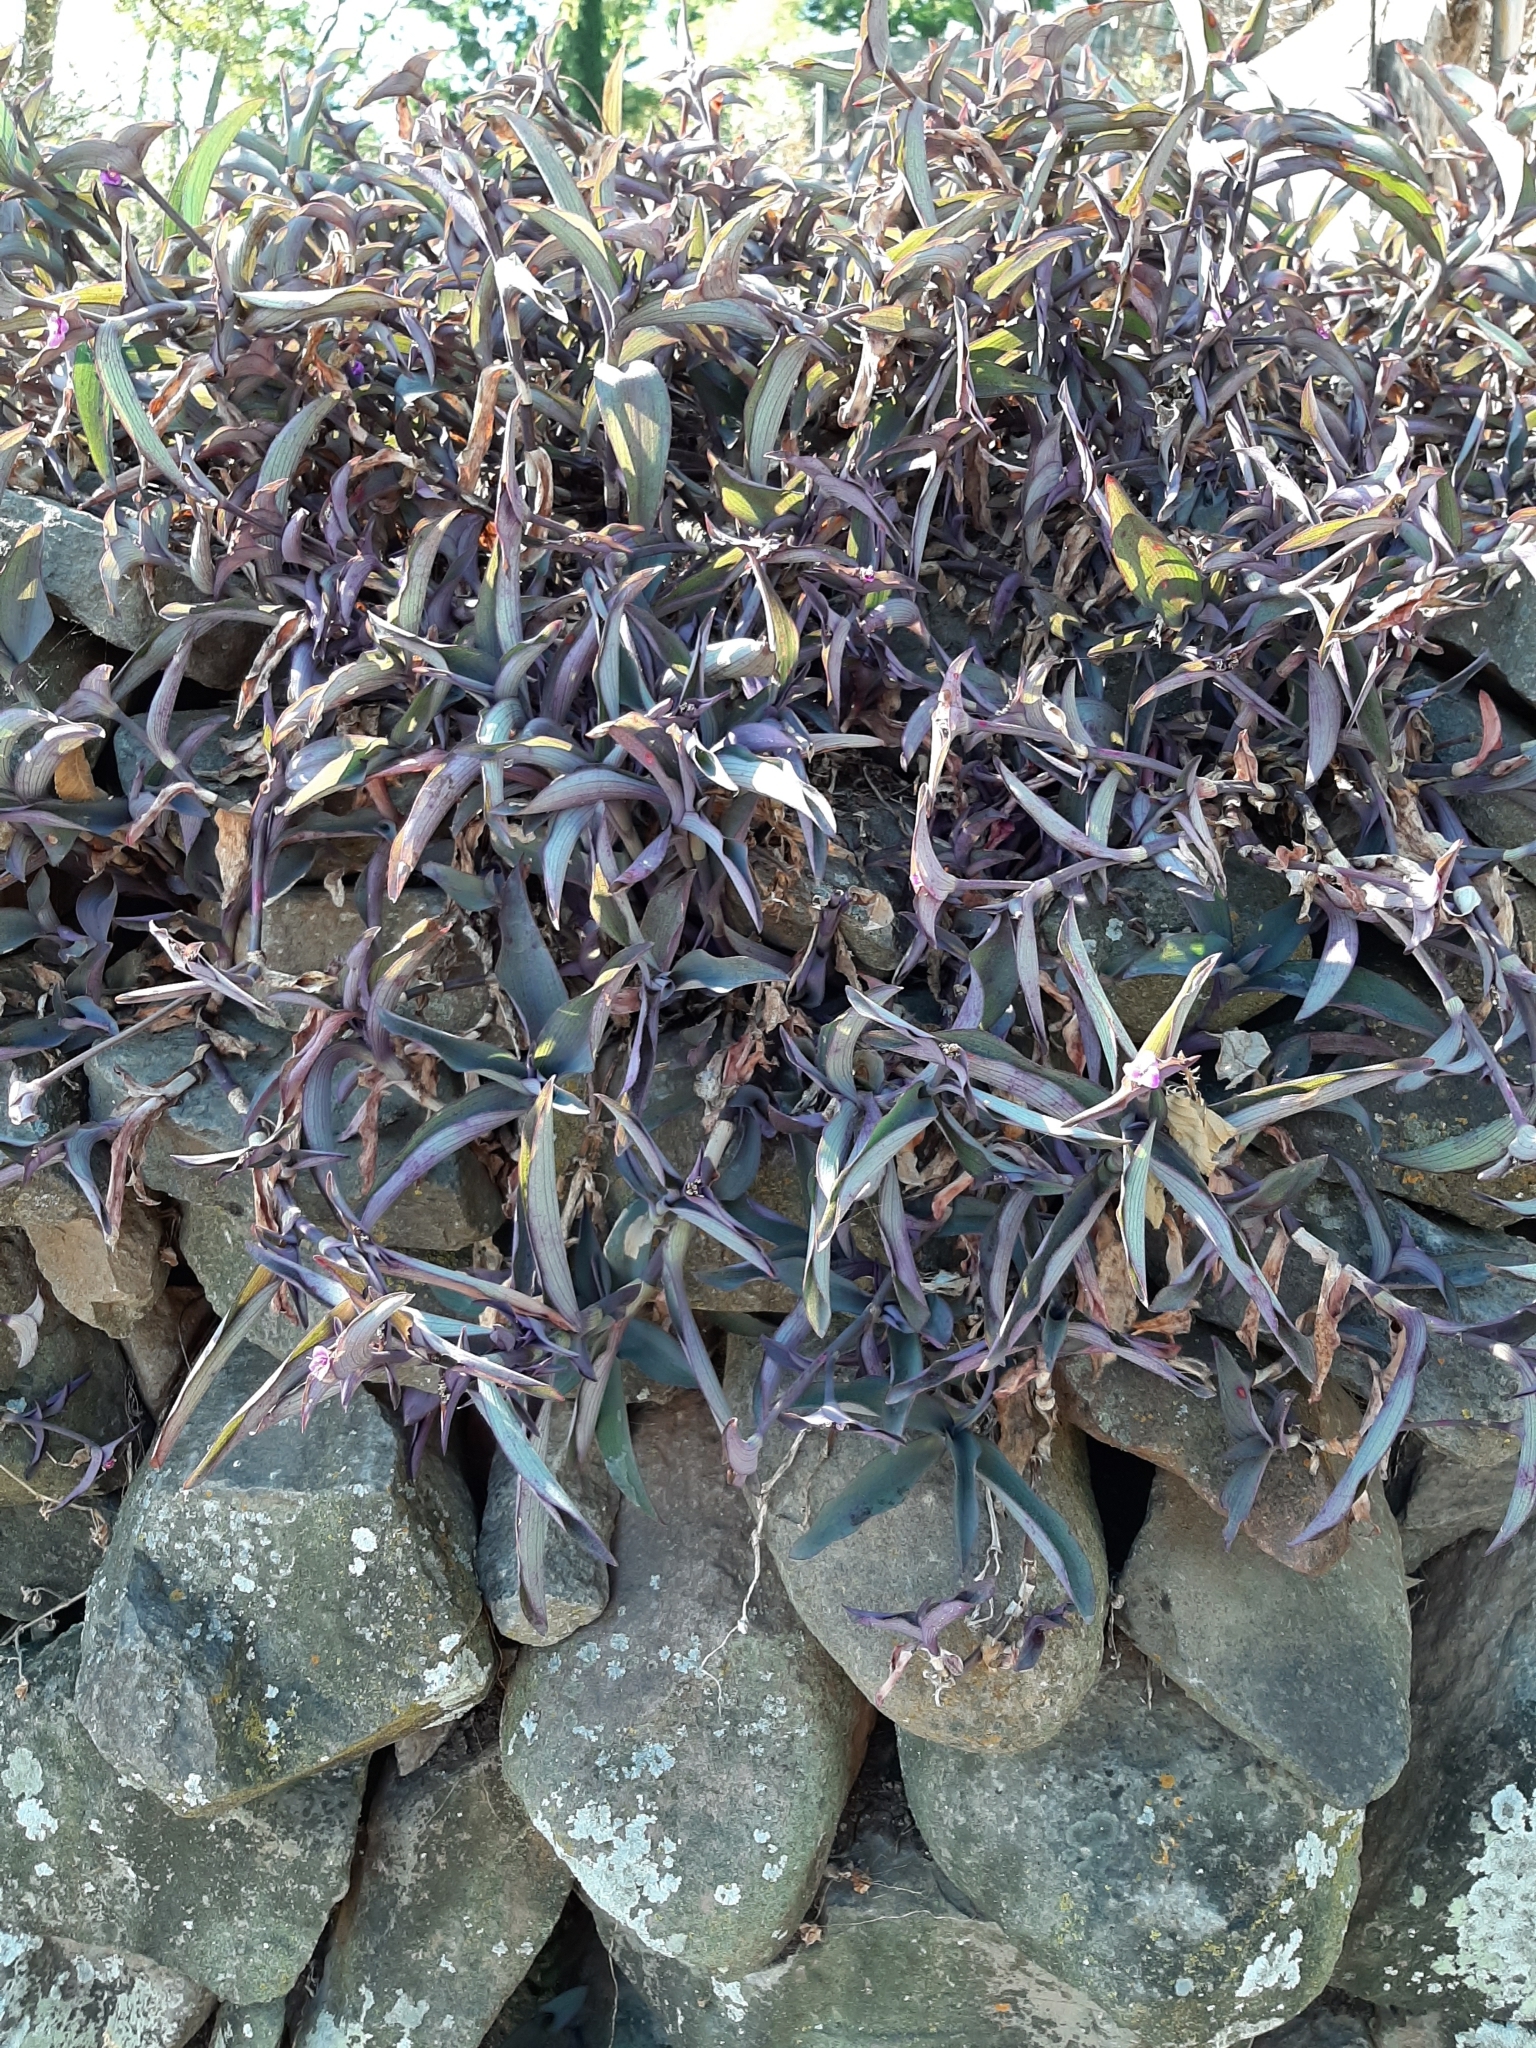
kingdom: Plantae
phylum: Tracheophyta
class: Liliopsida
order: Commelinales
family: Commelinaceae
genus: Tradescantia
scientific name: Tradescantia pallida
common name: Purpleheart
